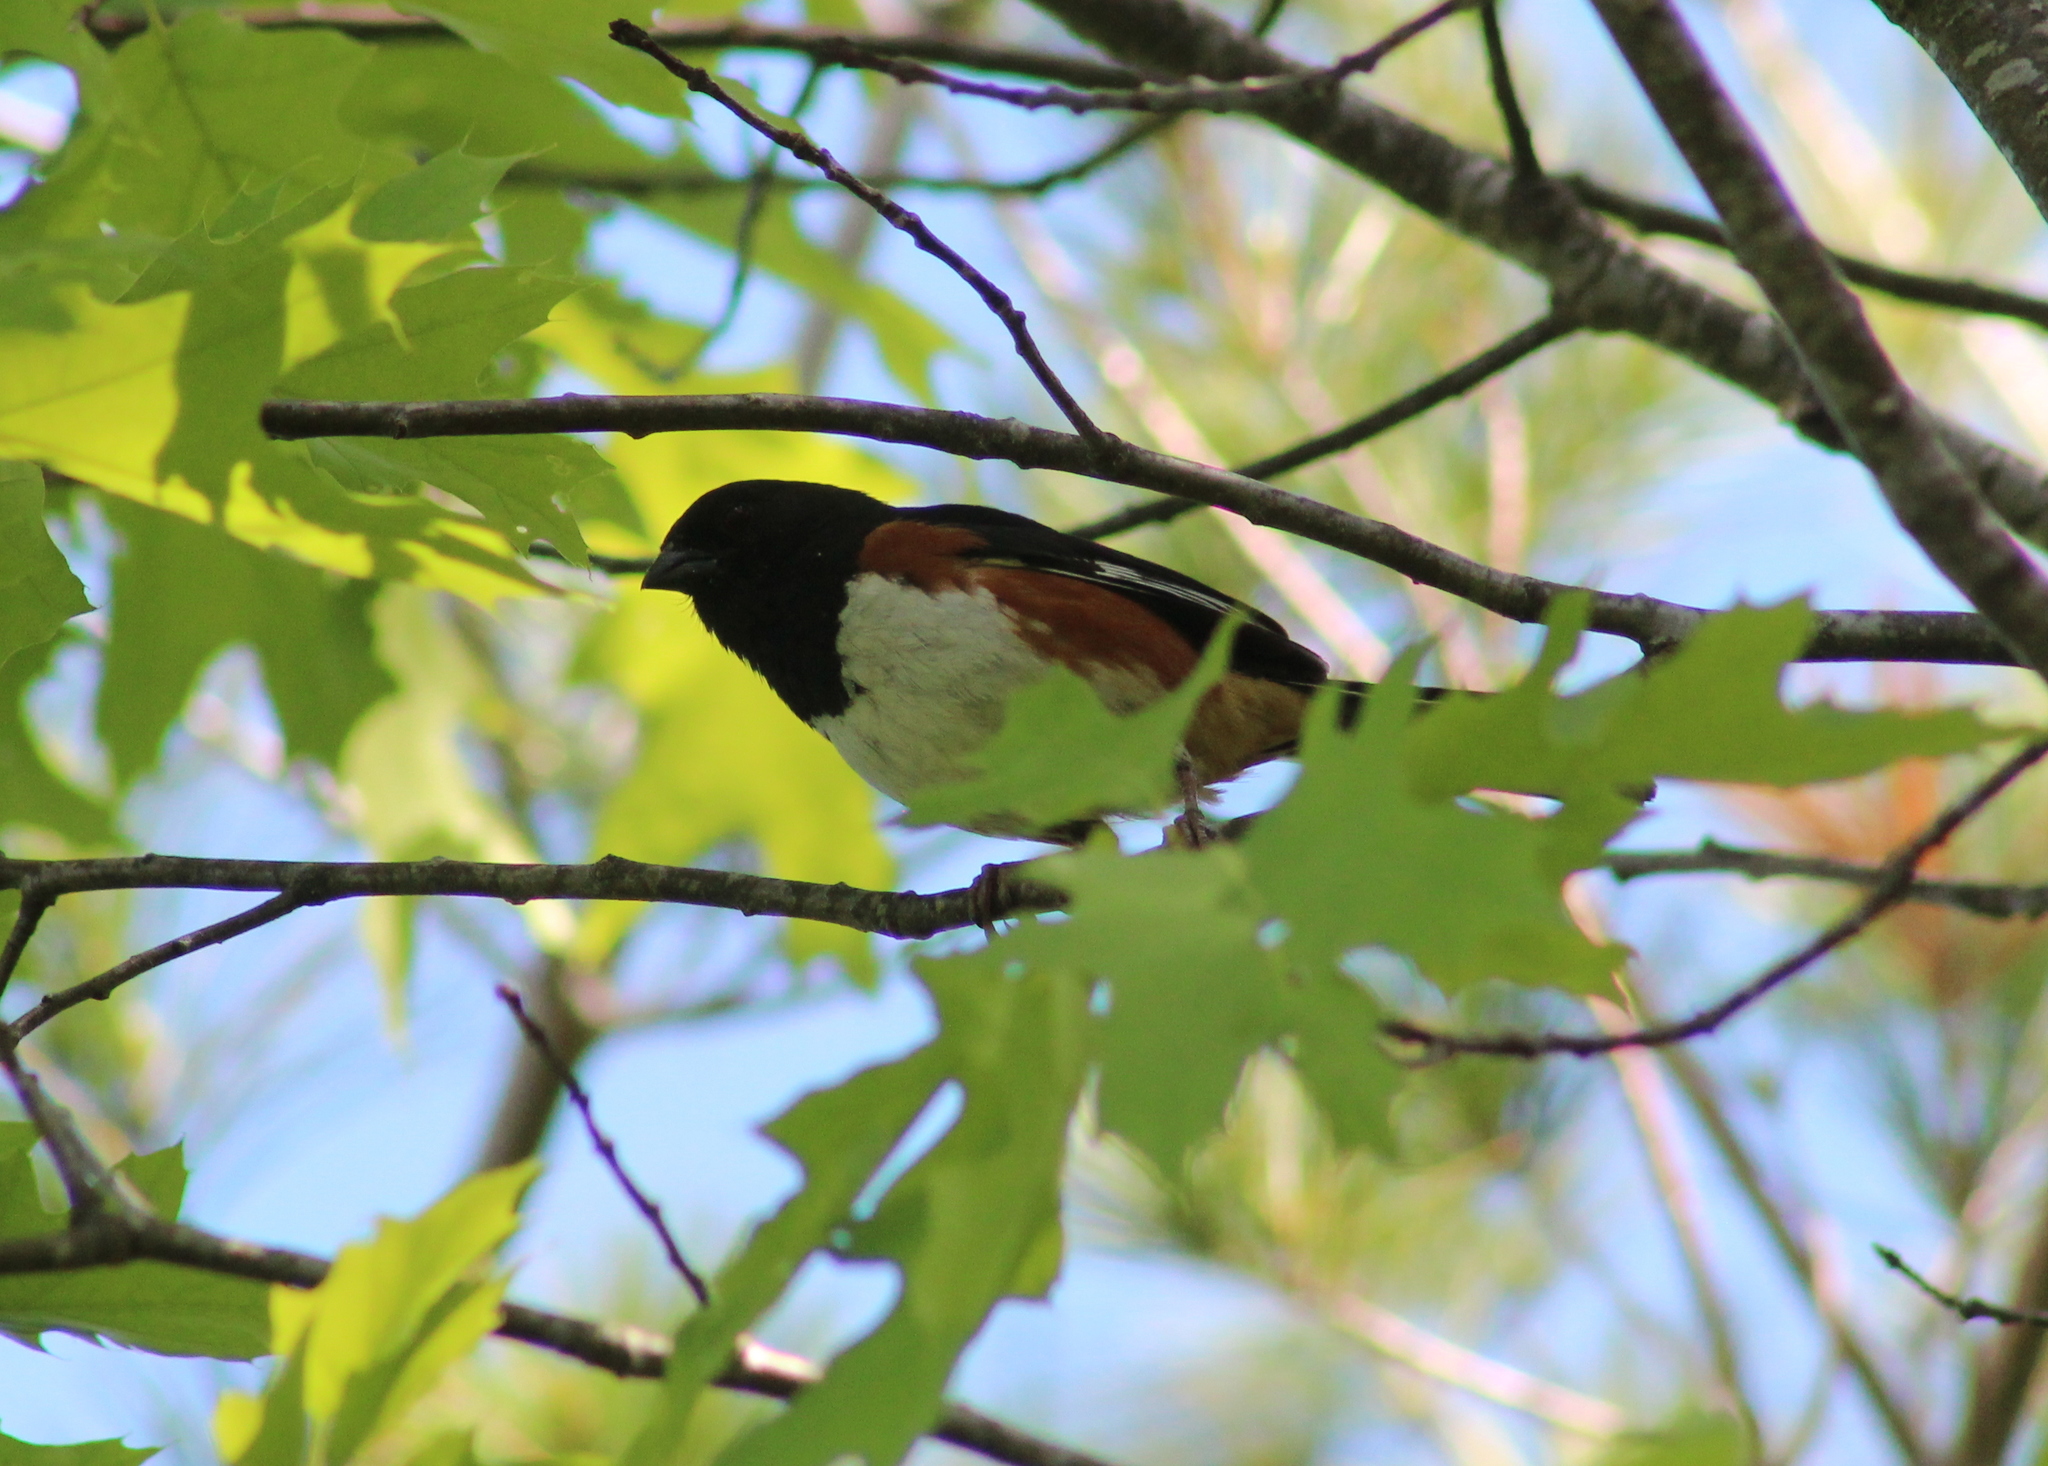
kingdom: Animalia
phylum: Chordata
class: Aves
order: Passeriformes
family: Passerellidae
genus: Pipilo
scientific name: Pipilo erythrophthalmus
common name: Eastern towhee
